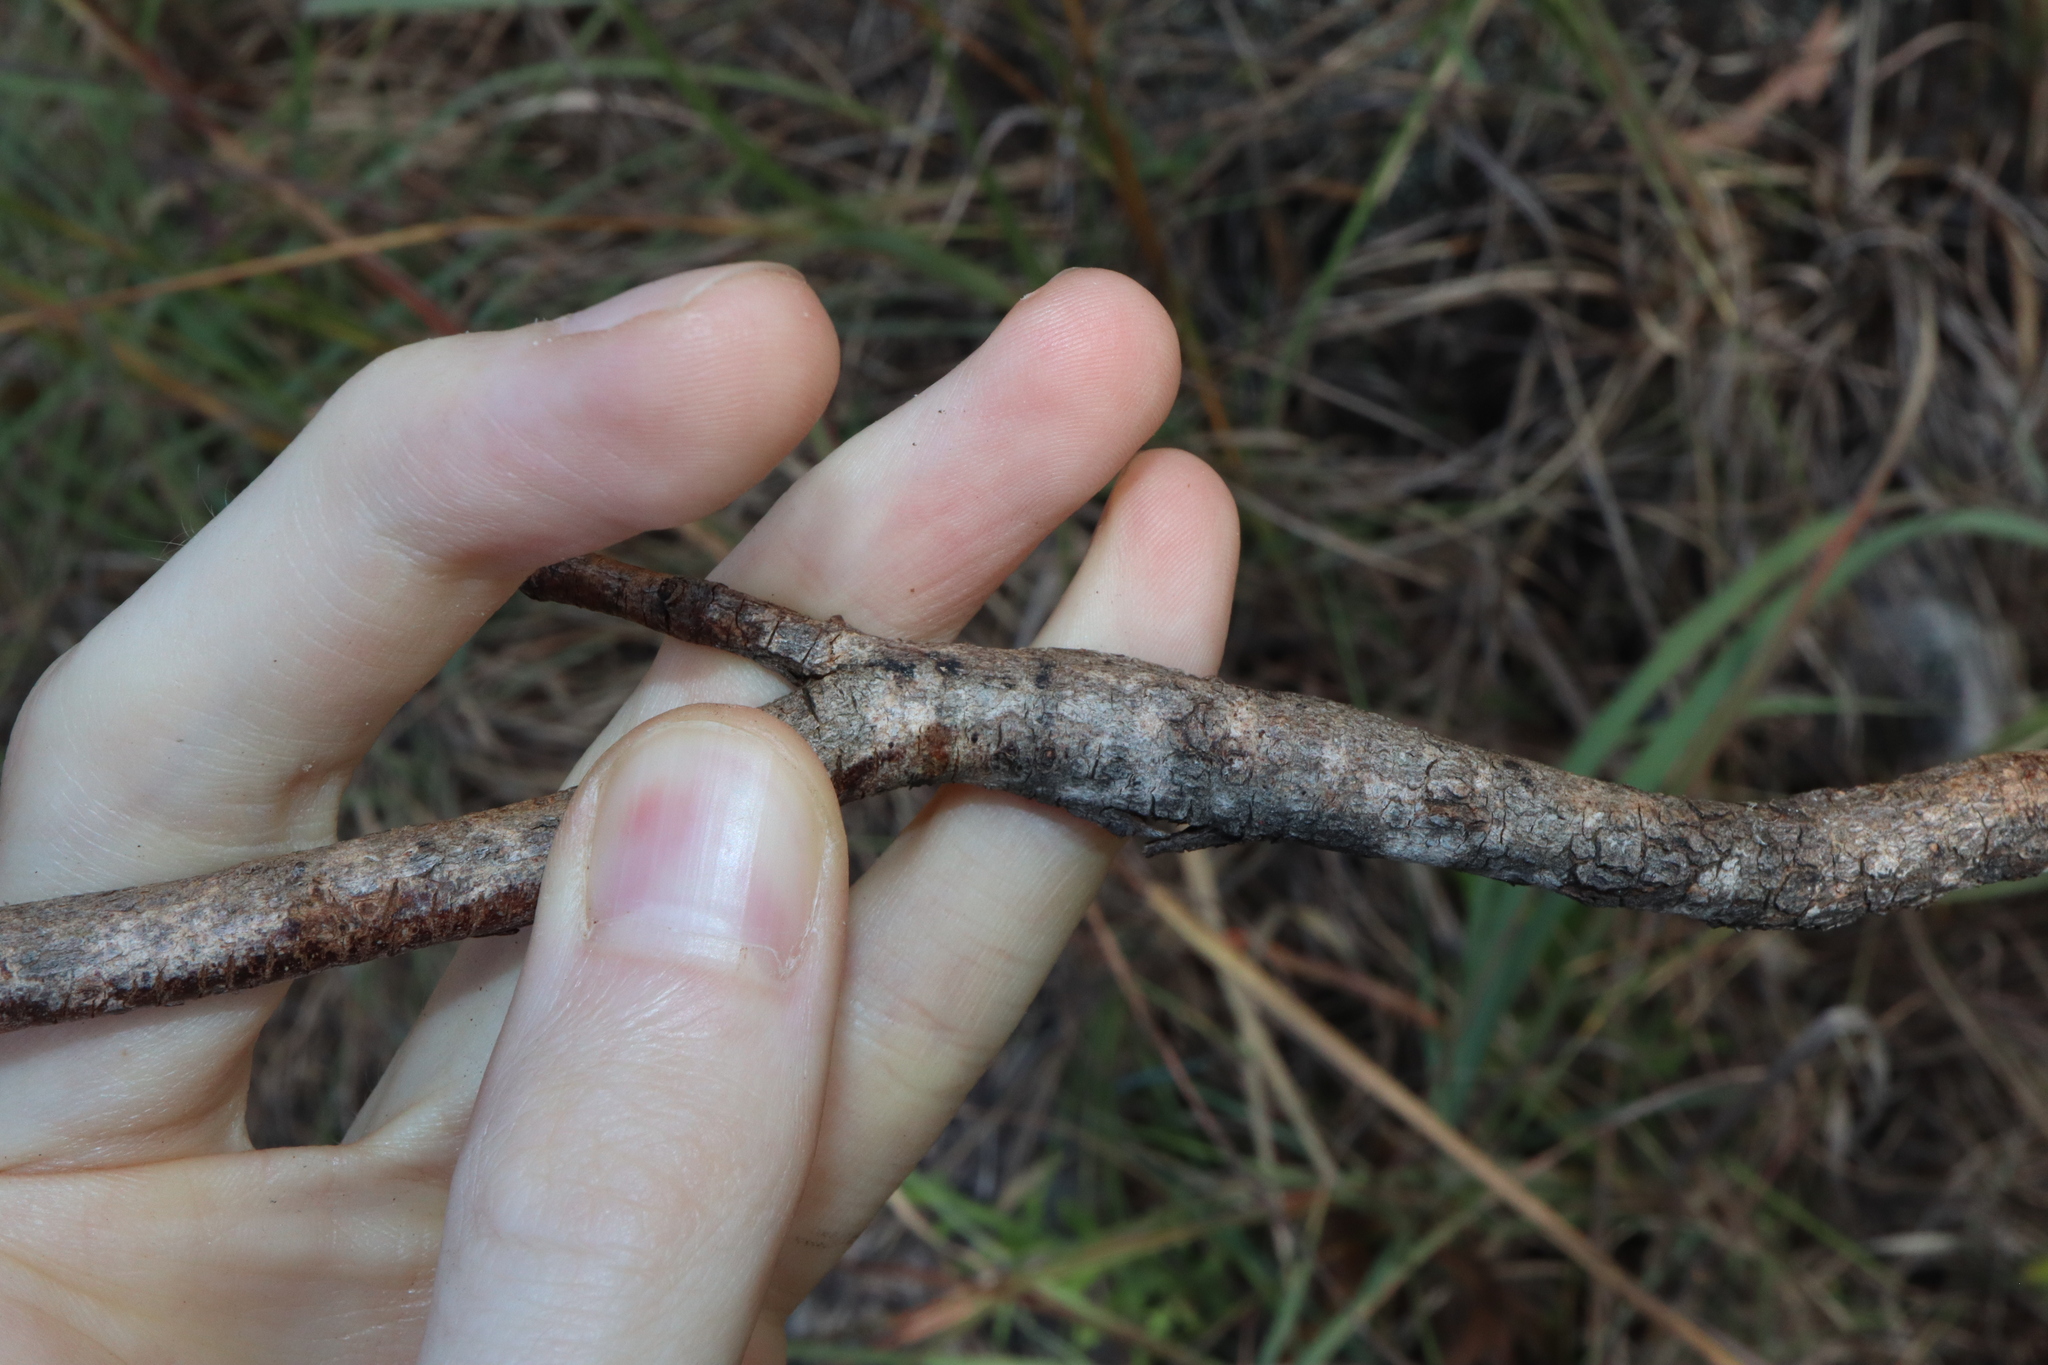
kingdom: Plantae
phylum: Tracheophyta
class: Magnoliopsida
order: Fabales
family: Fabaceae
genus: Indigofera
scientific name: Indigofera pratensis
